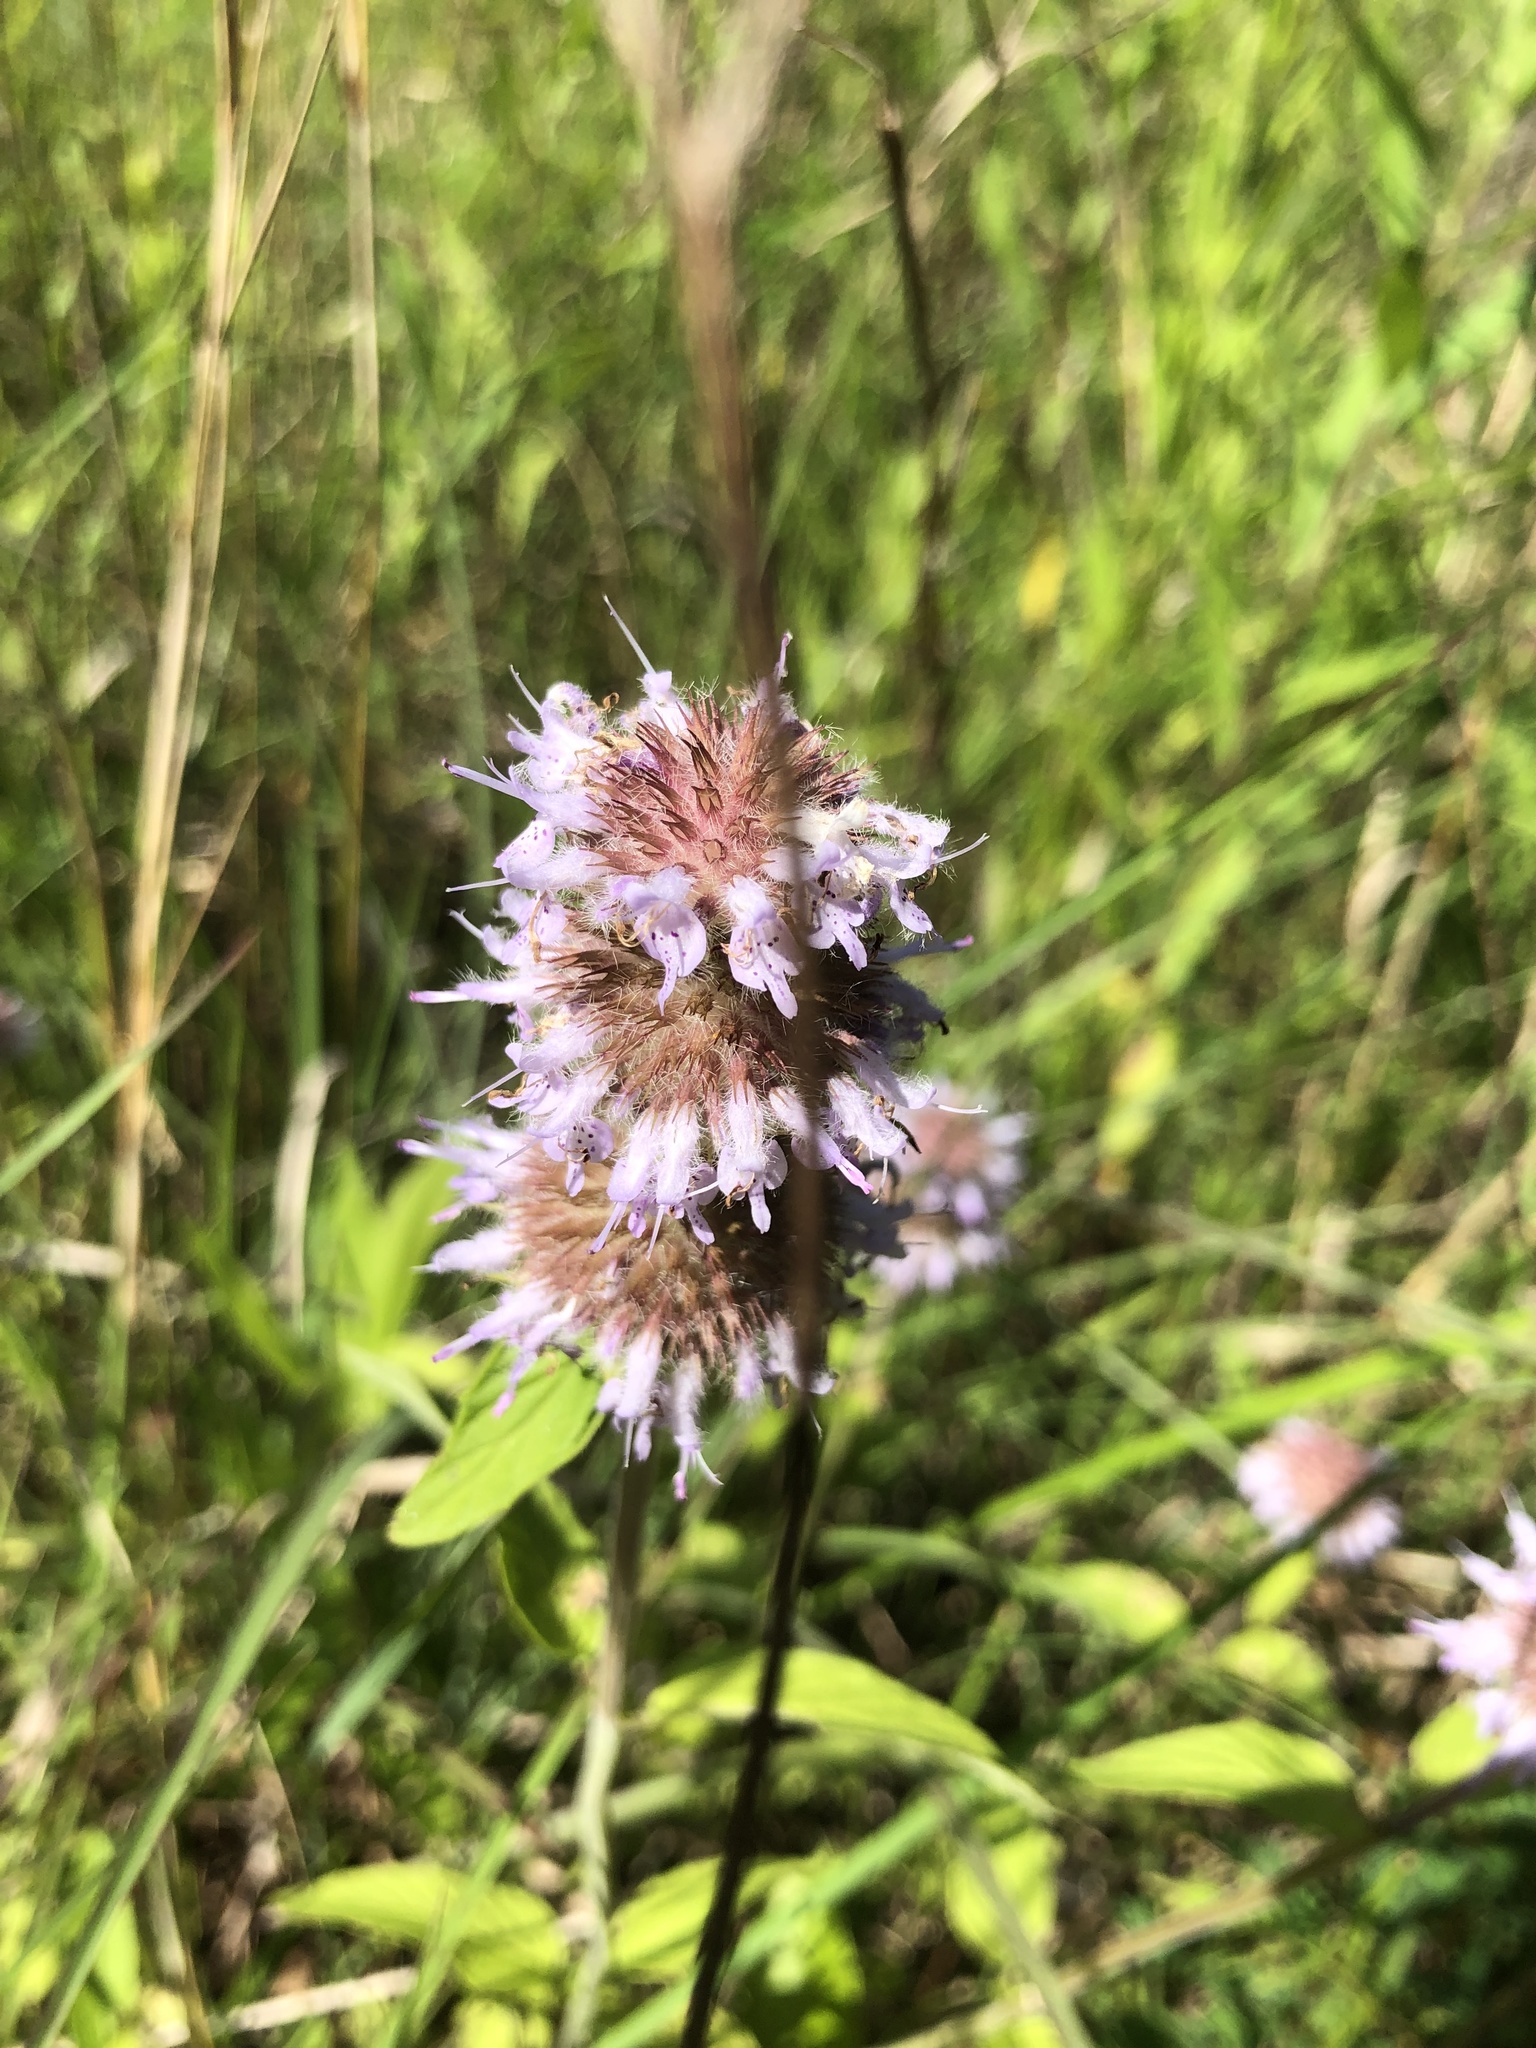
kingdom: Plantae
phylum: Tracheophyta
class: Magnoliopsida
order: Lamiales
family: Lamiaceae
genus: Blephilia
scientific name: Blephilia ciliata
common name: Downy blephilia
